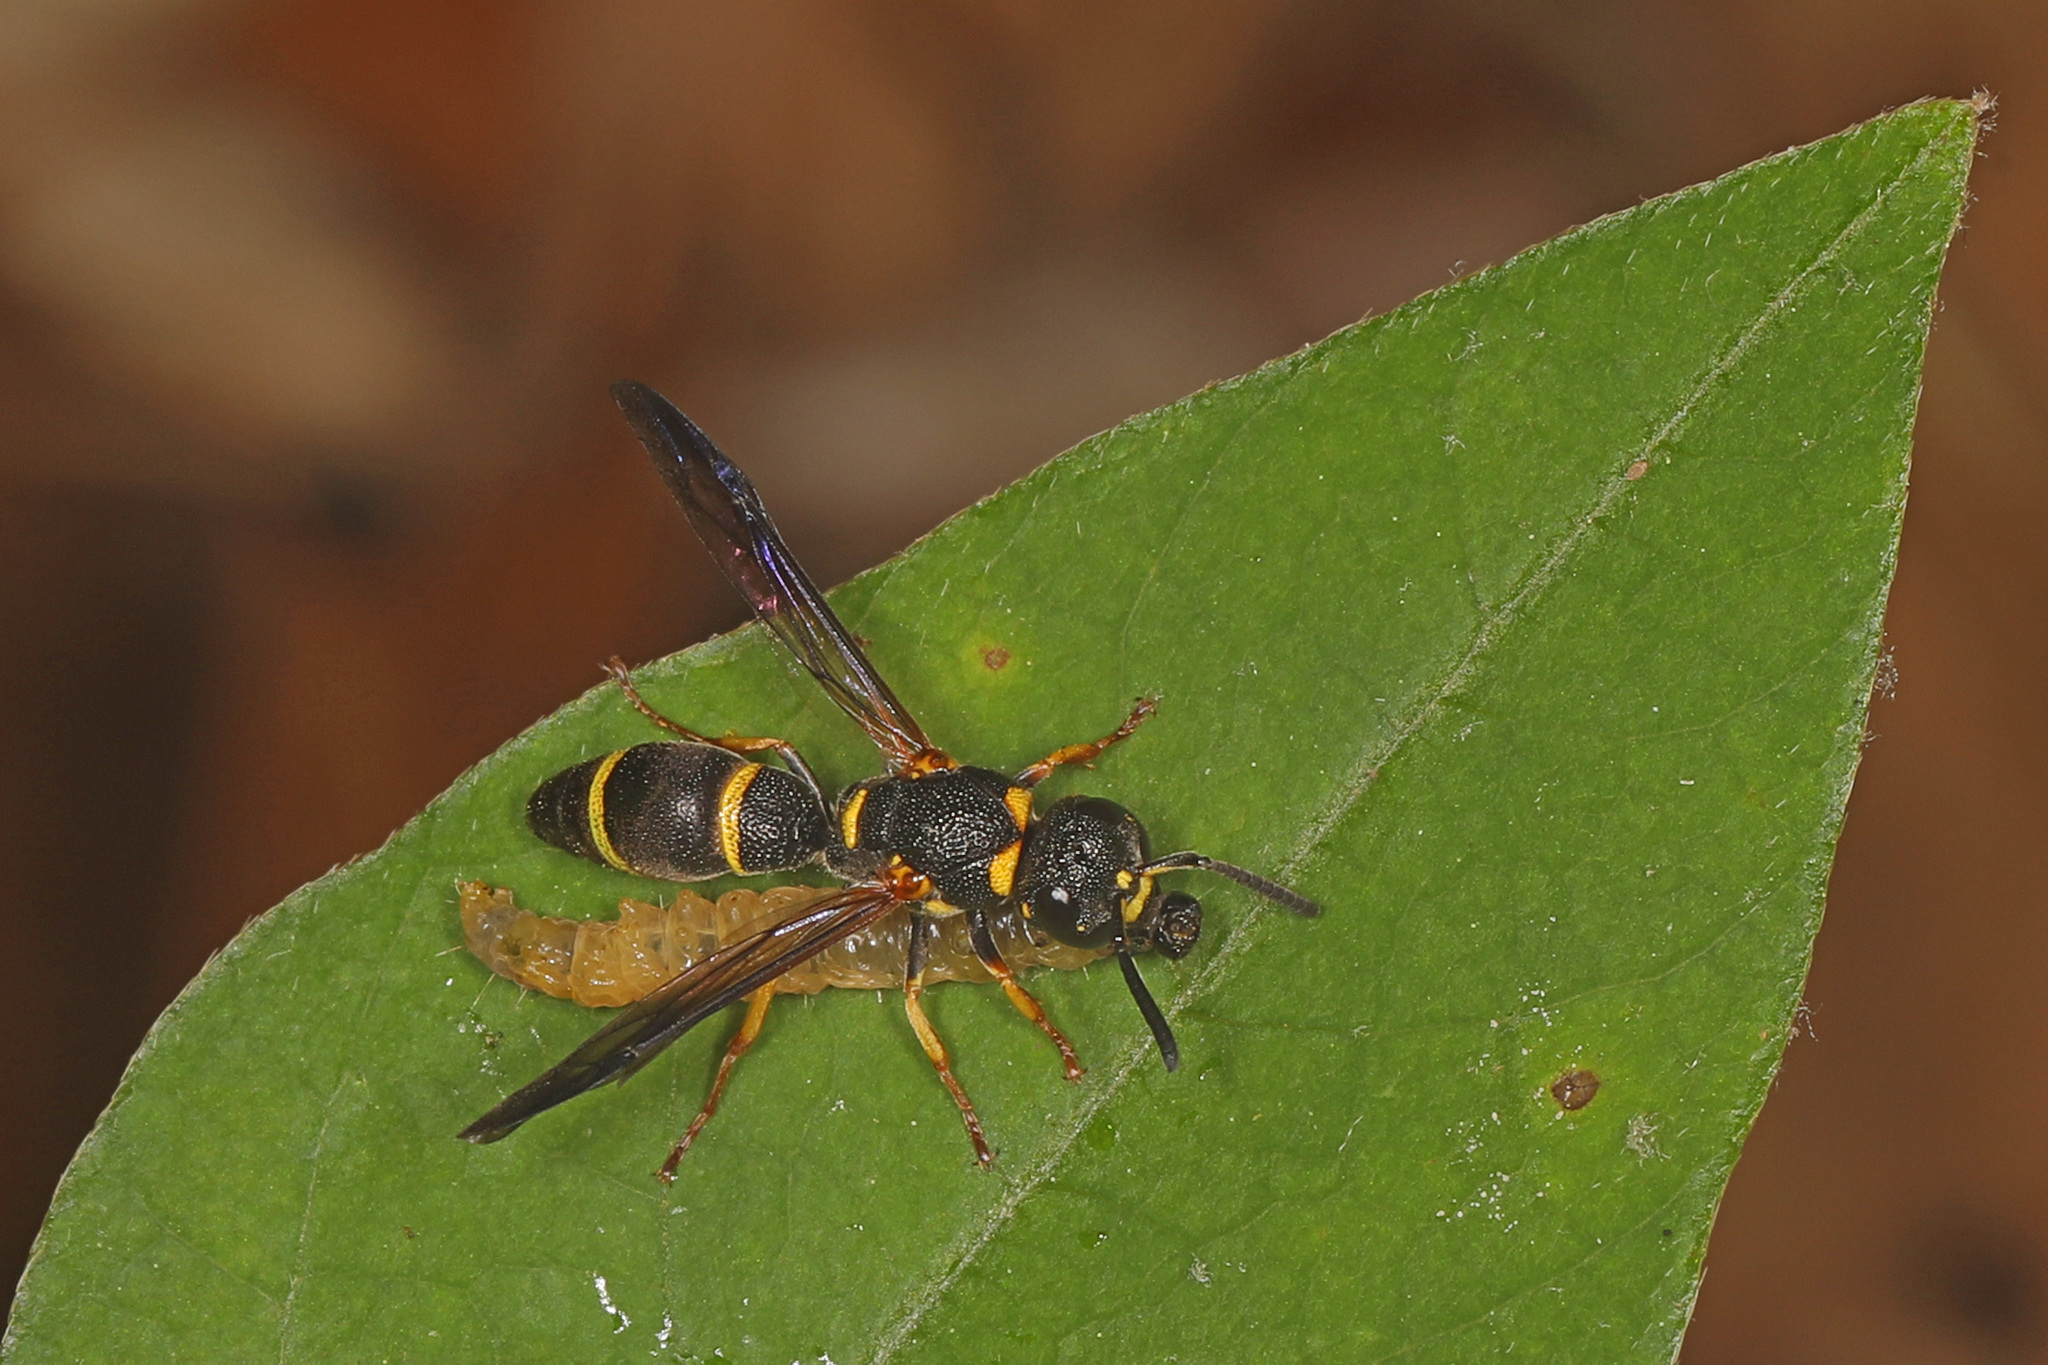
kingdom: Animalia
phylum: Arthropoda
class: Insecta
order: Hymenoptera
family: Eumenidae
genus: Parancistrocerus
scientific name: Parancistrocerus perennis
